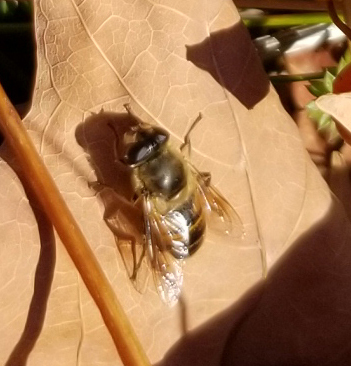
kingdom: Animalia
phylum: Arthropoda
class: Insecta
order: Diptera
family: Syrphidae
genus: Eristalis
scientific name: Eristalis tenax
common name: Drone fly
